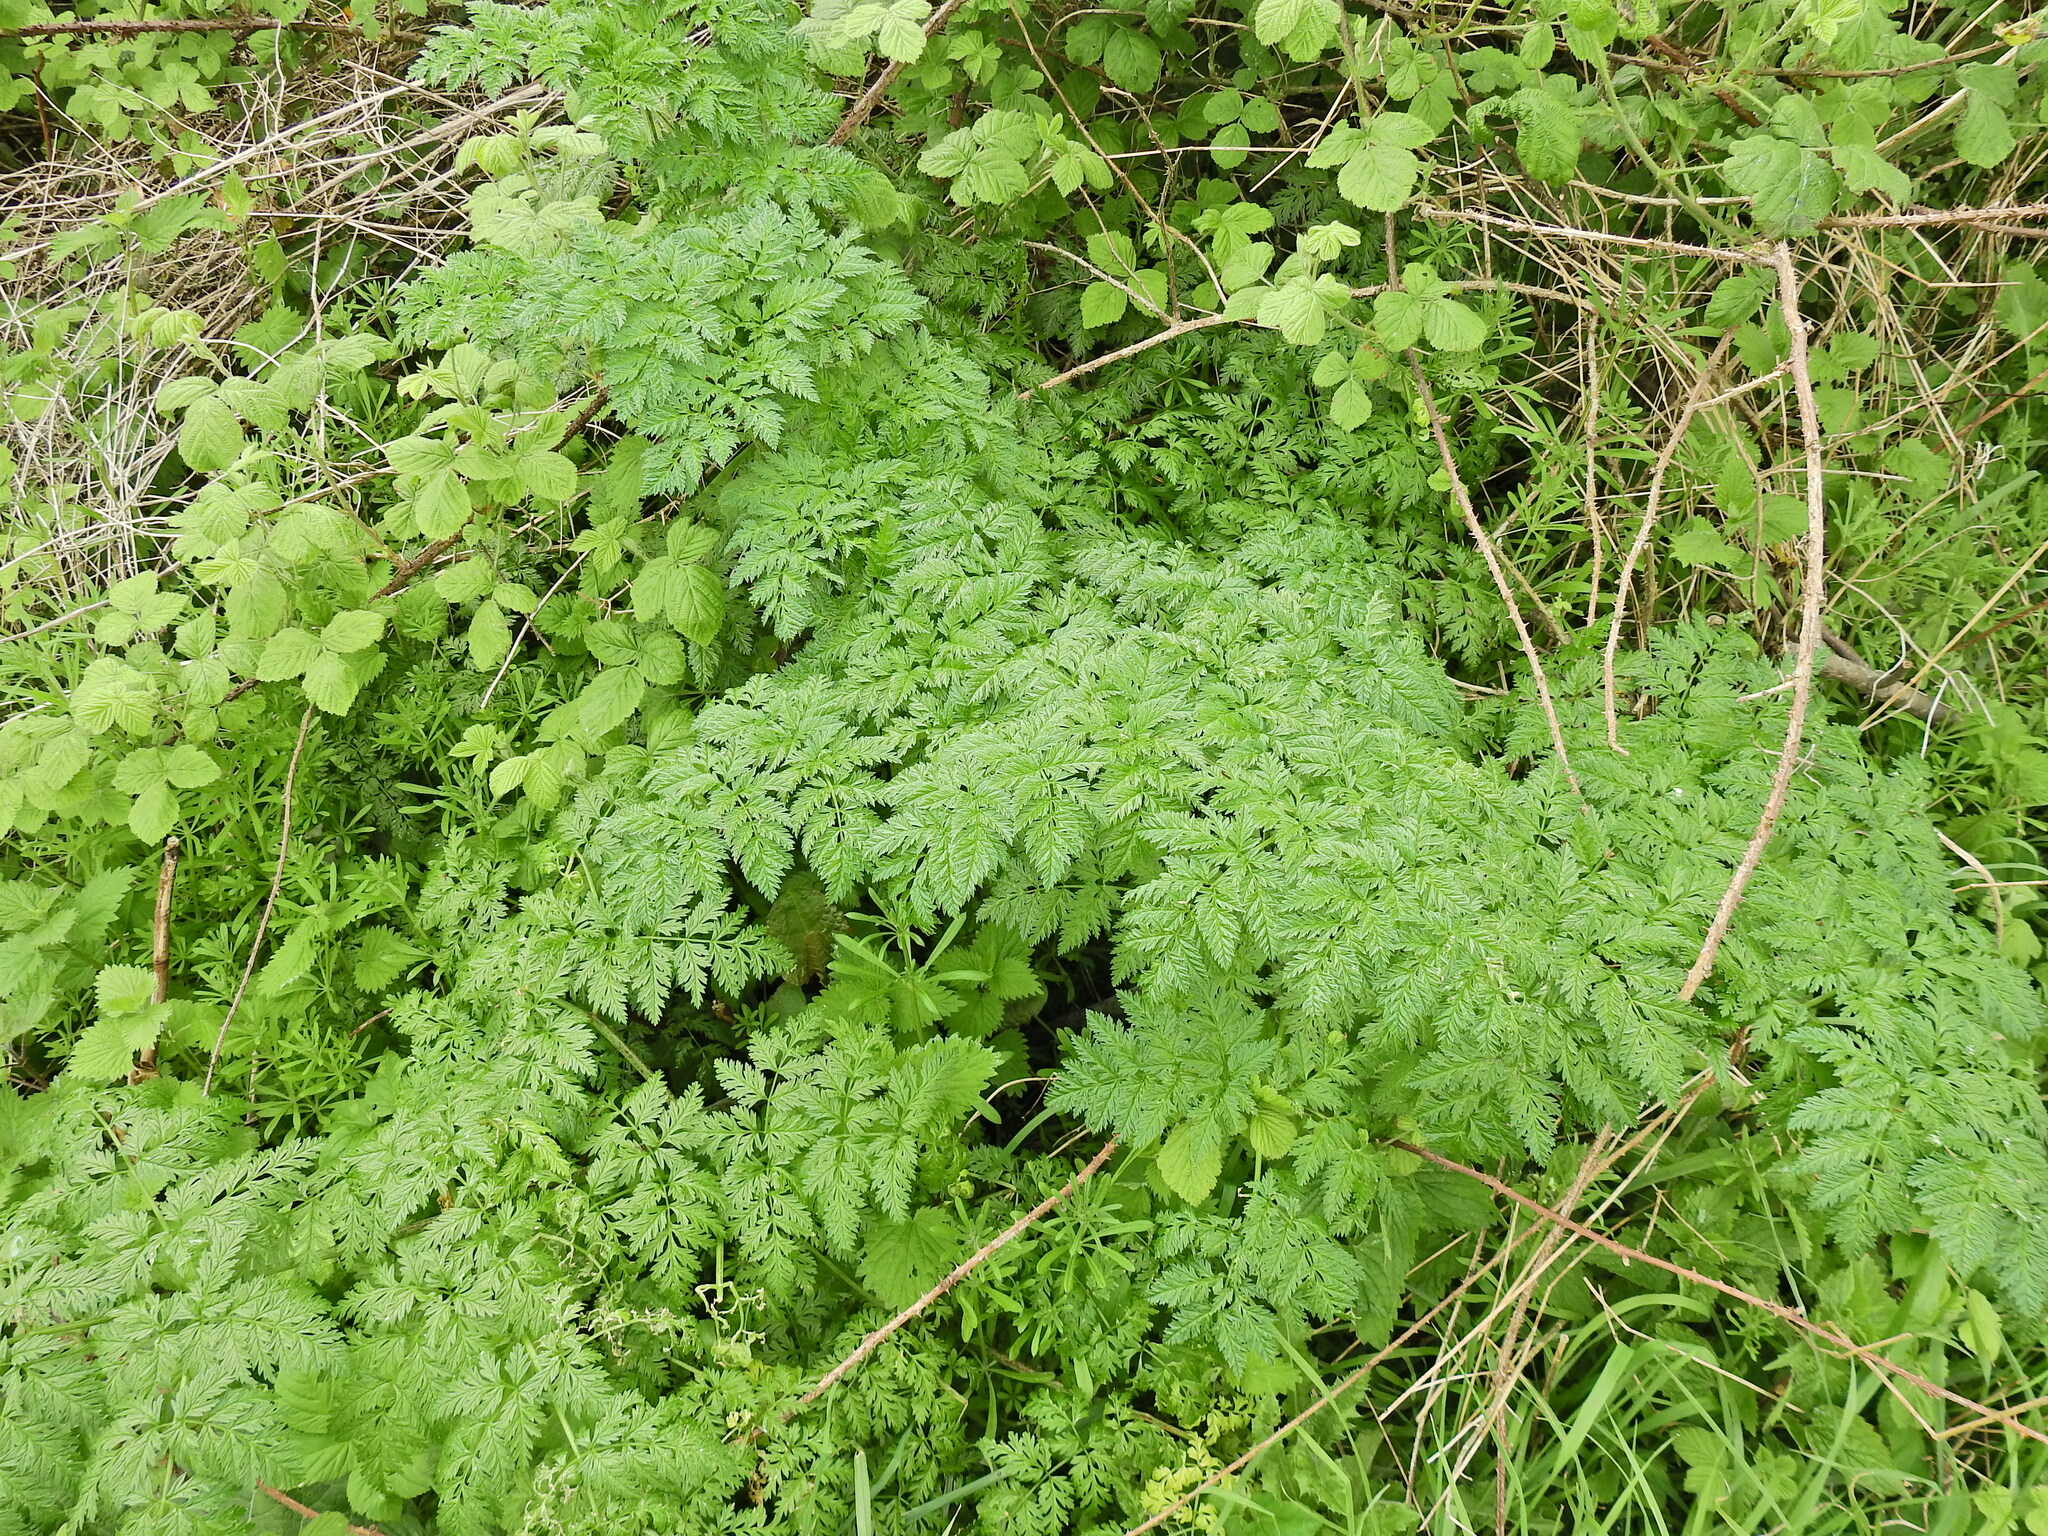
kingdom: Plantae
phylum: Tracheophyta
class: Magnoliopsida
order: Apiales
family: Apiaceae
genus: Conium
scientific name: Conium maculatum
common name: Hemlock
